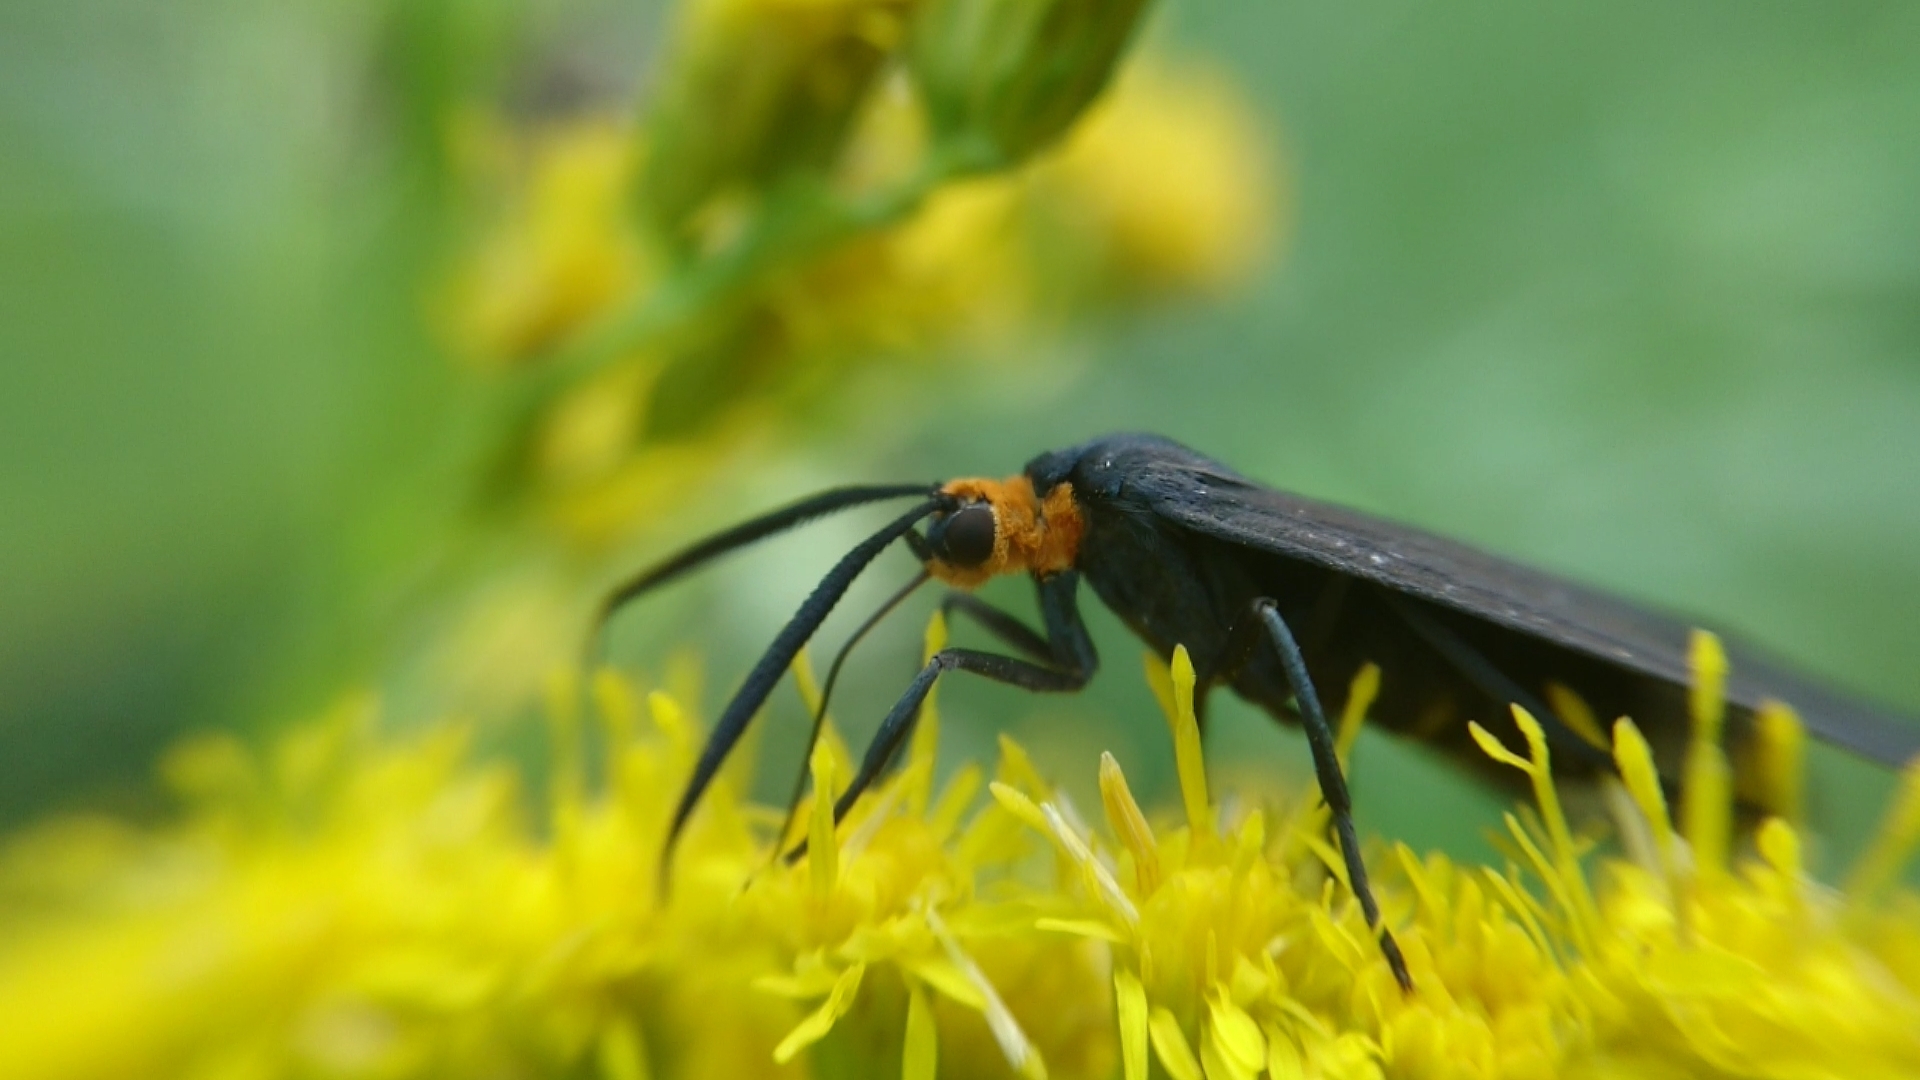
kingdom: Animalia
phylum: Arthropoda
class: Insecta
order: Lepidoptera
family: Erebidae
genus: Ctenucha
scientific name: Ctenucha rubriceps
